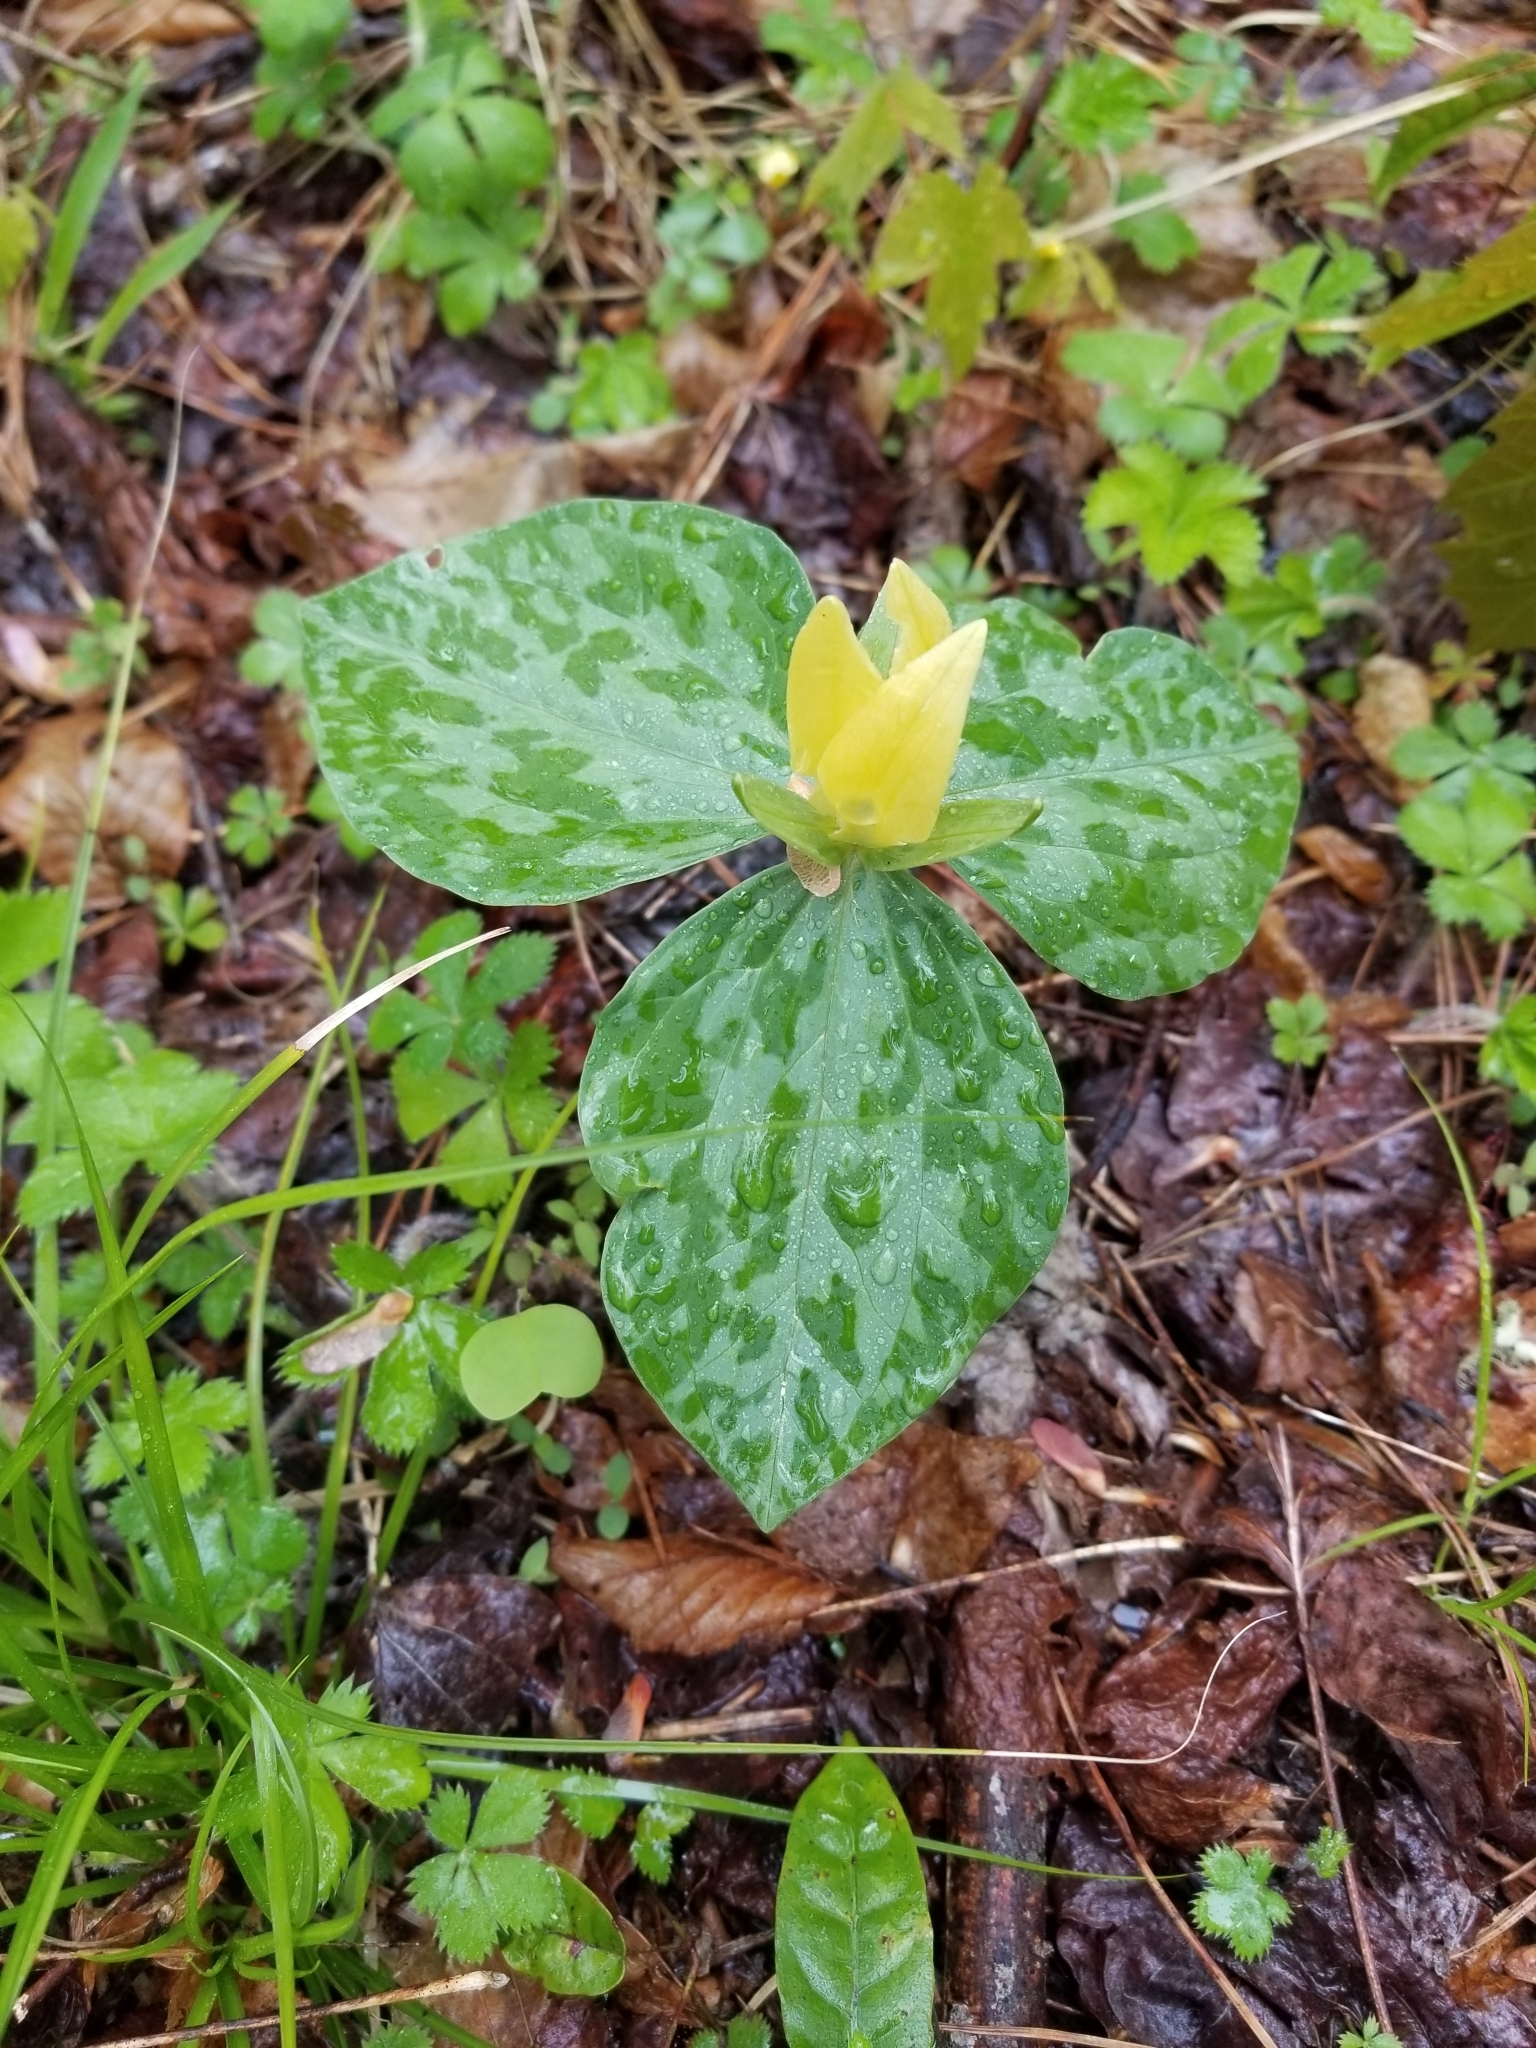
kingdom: Plantae
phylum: Tracheophyta
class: Liliopsida
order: Liliales
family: Melanthiaceae
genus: Trillium
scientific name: Trillium luteum
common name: Wax trillium
